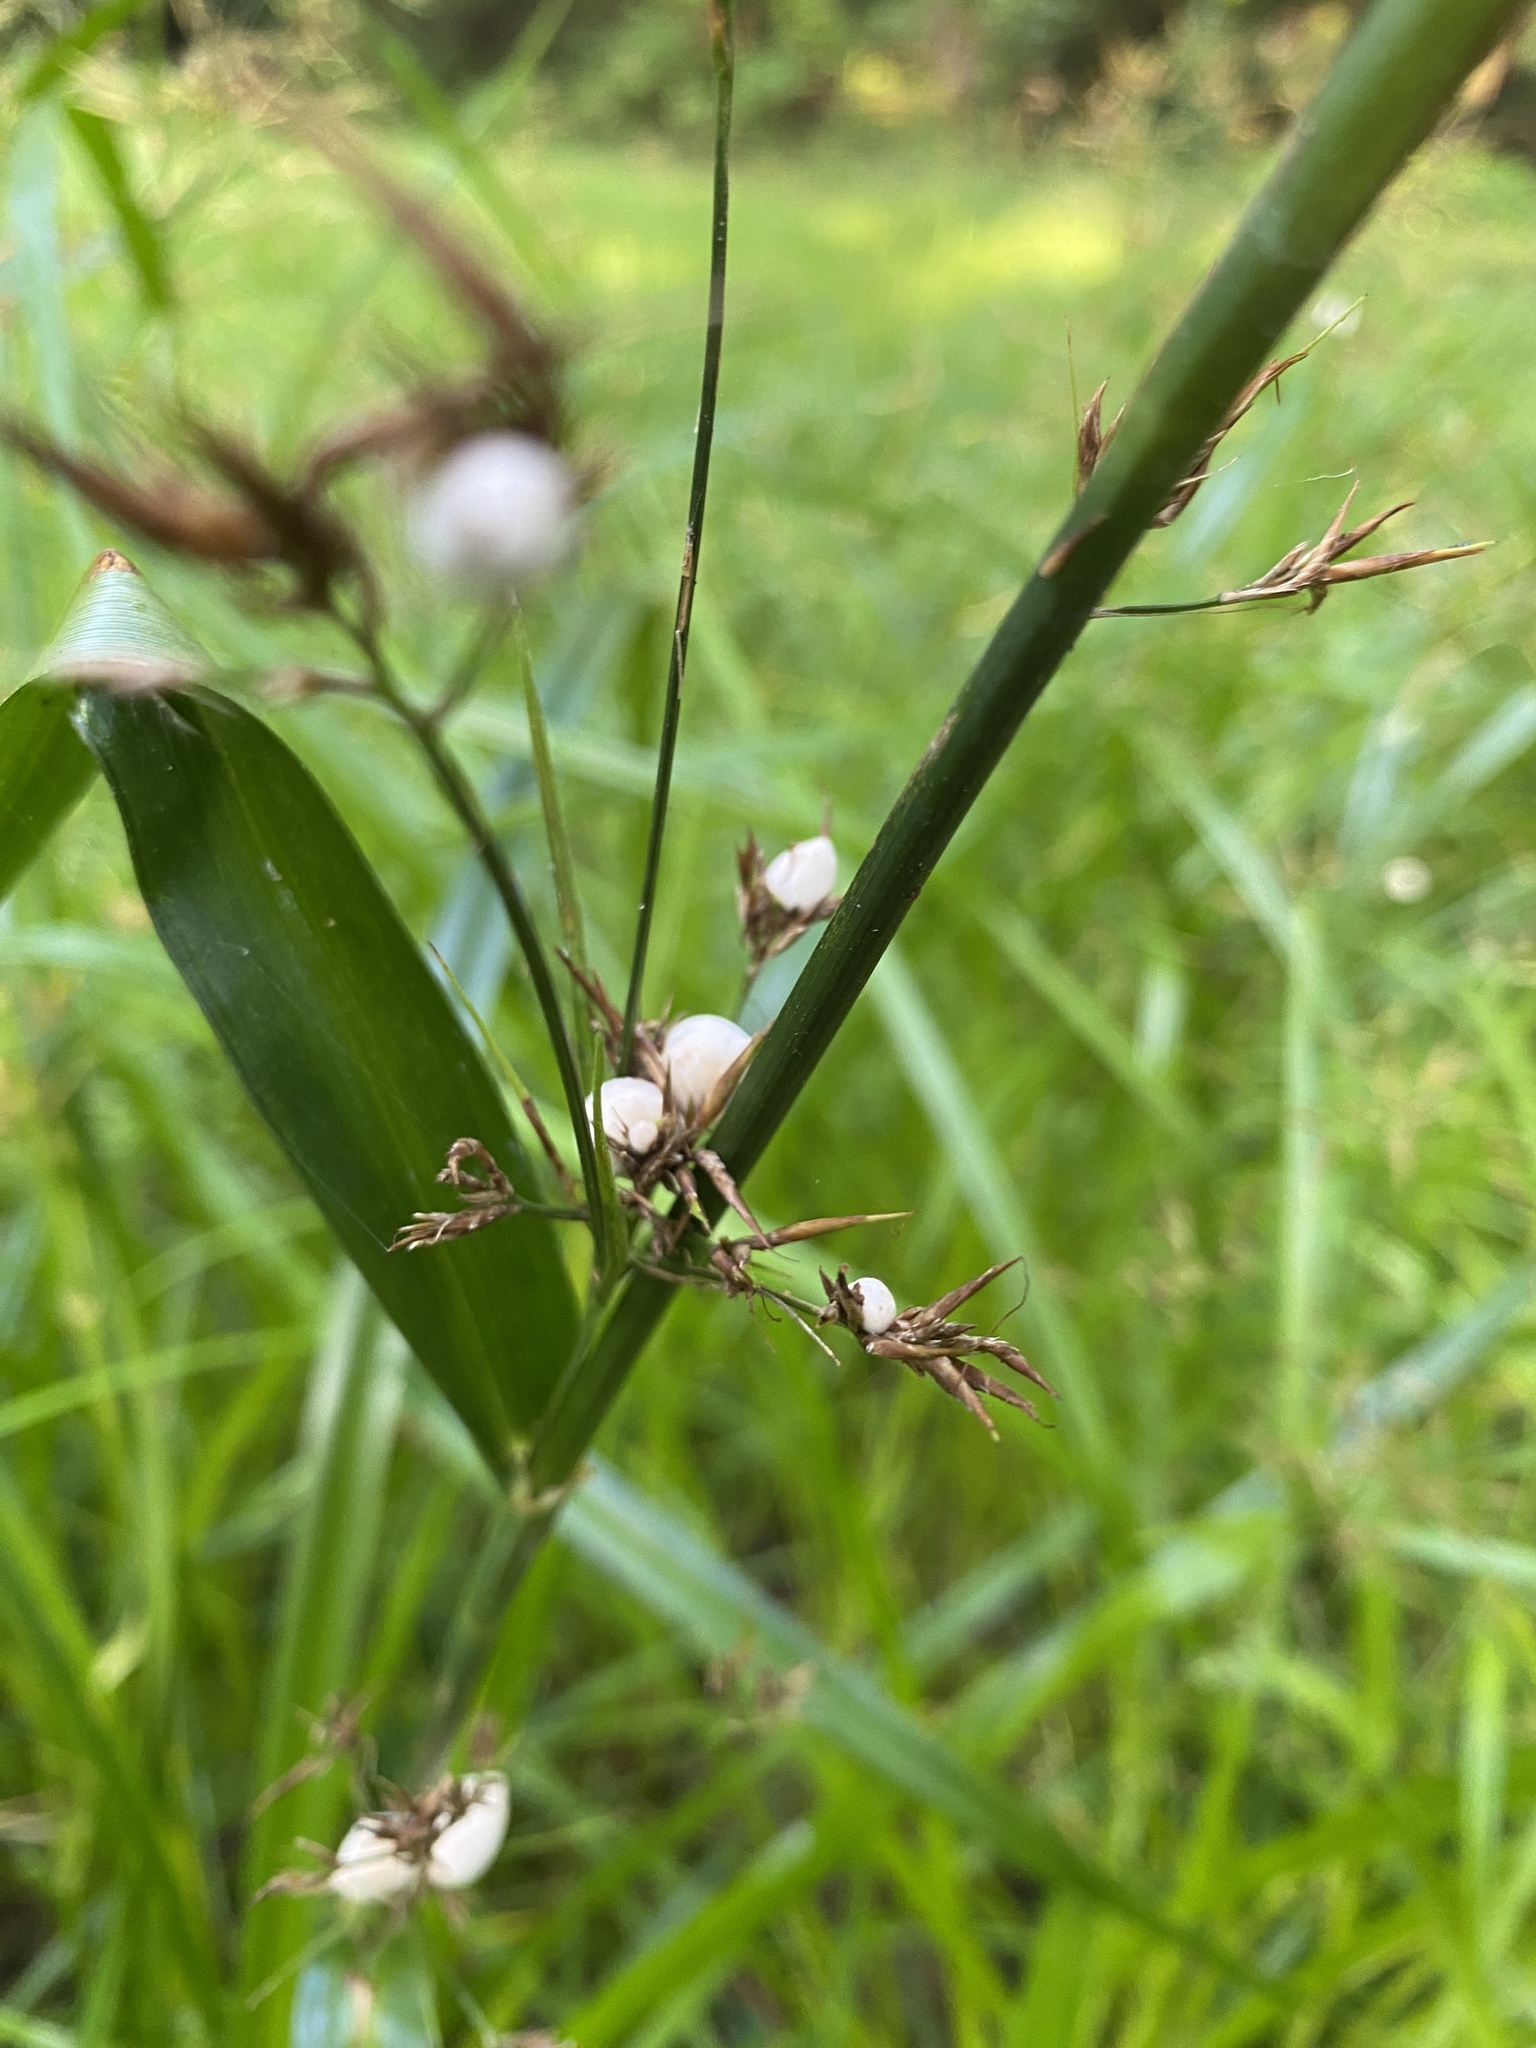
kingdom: Fungi
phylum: Basidiomycota
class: Ustilaginomycetes
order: Ustilaginales
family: Anthracoideaceae
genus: Testicularia
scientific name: Testicularia cyperi
